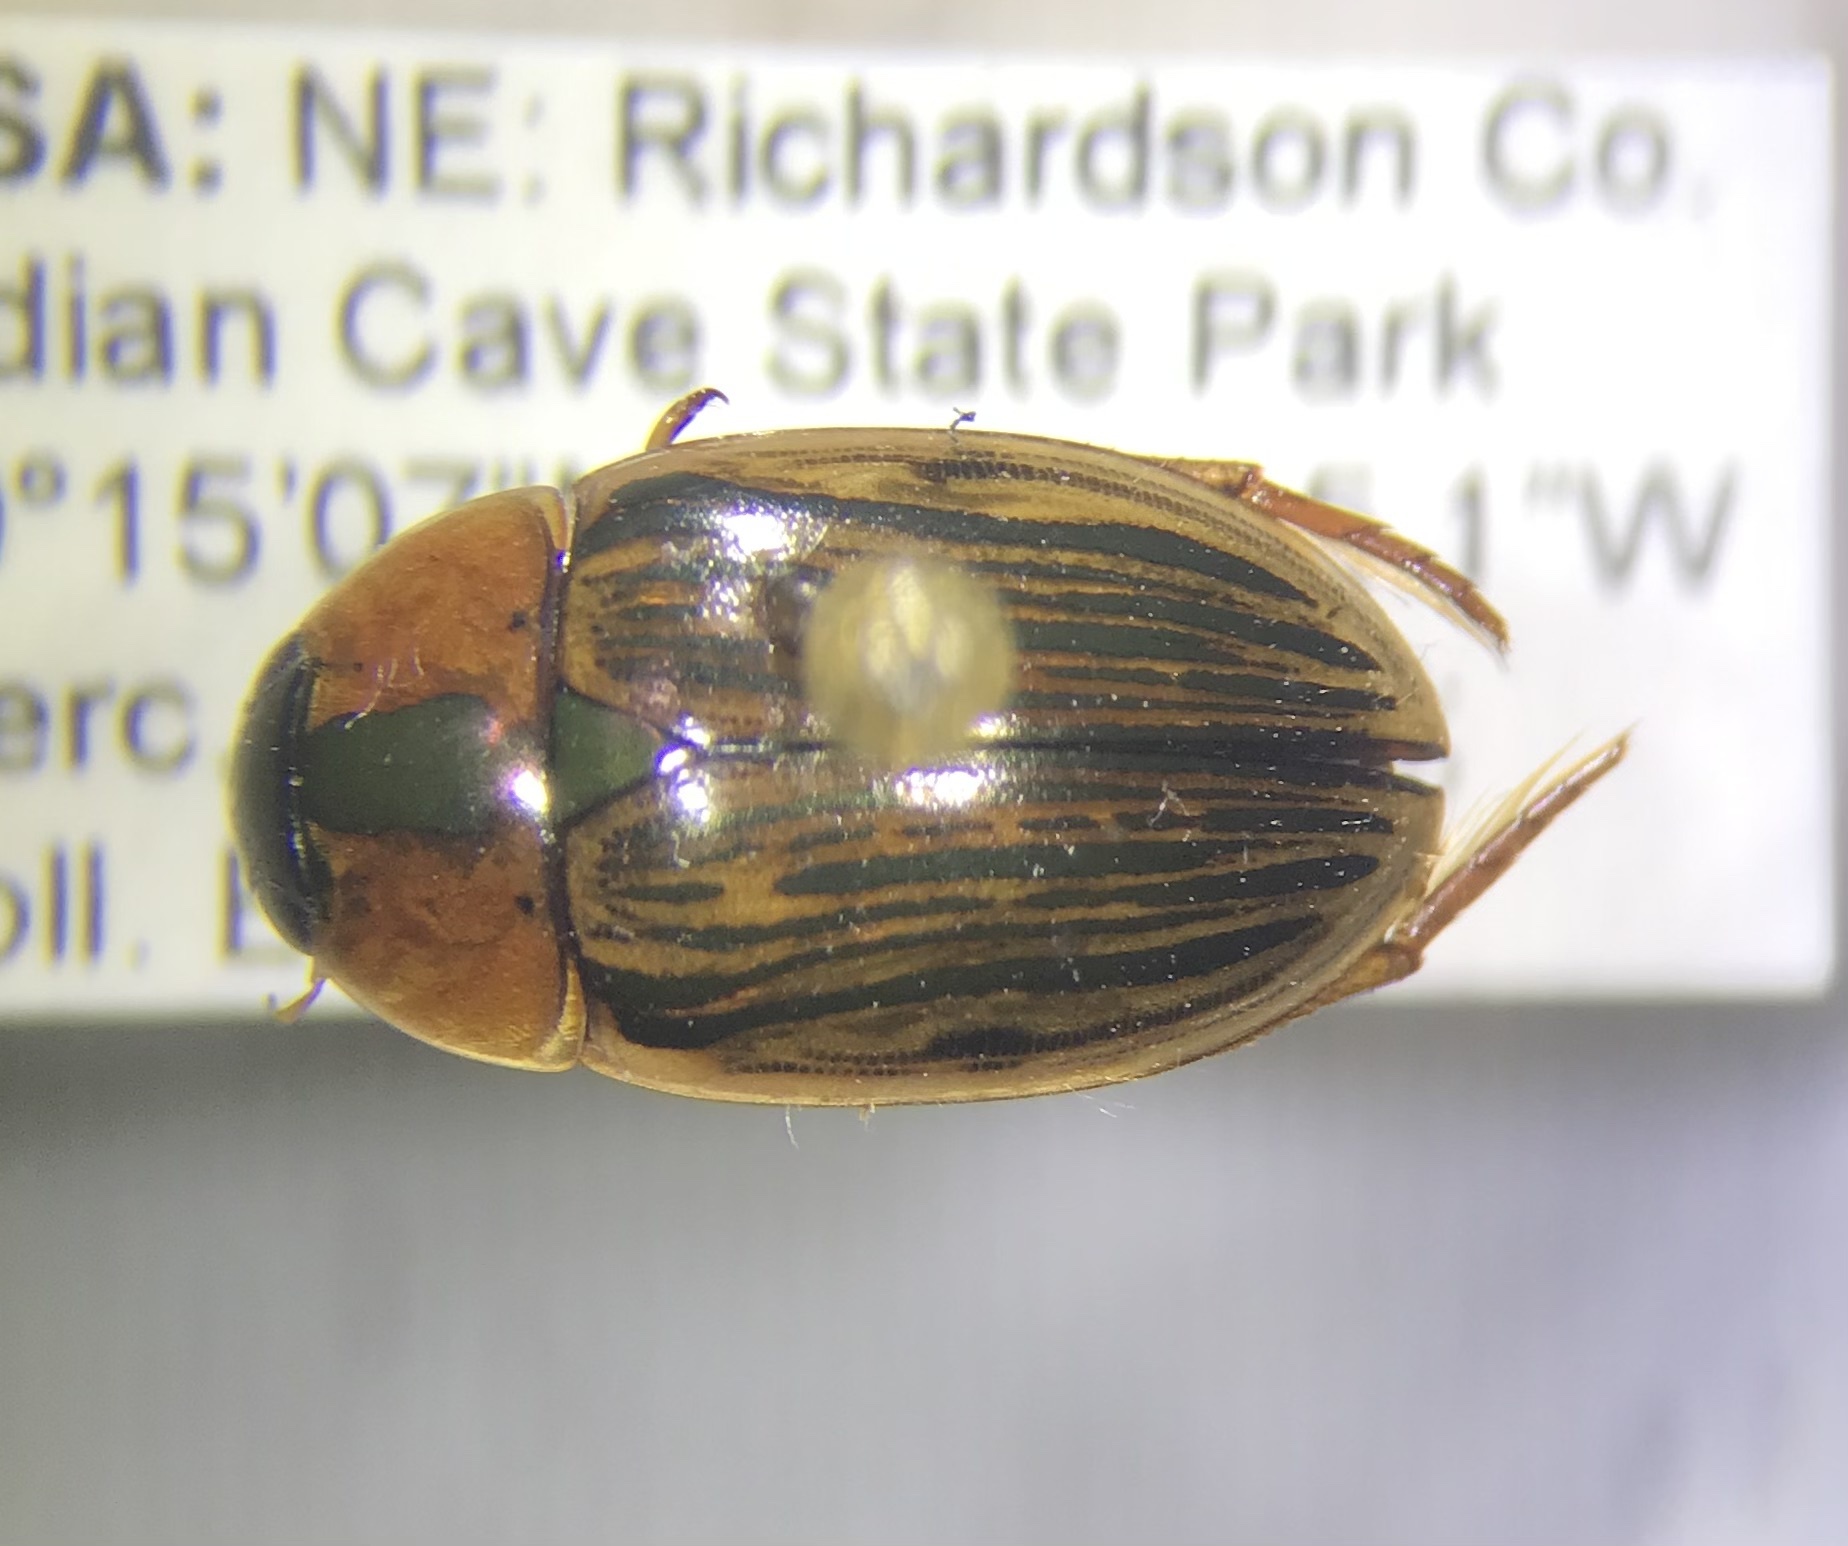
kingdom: Animalia
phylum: Arthropoda
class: Insecta
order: Coleoptera
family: Hydrophilidae
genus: Tropisternus
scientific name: Tropisternus collaris
